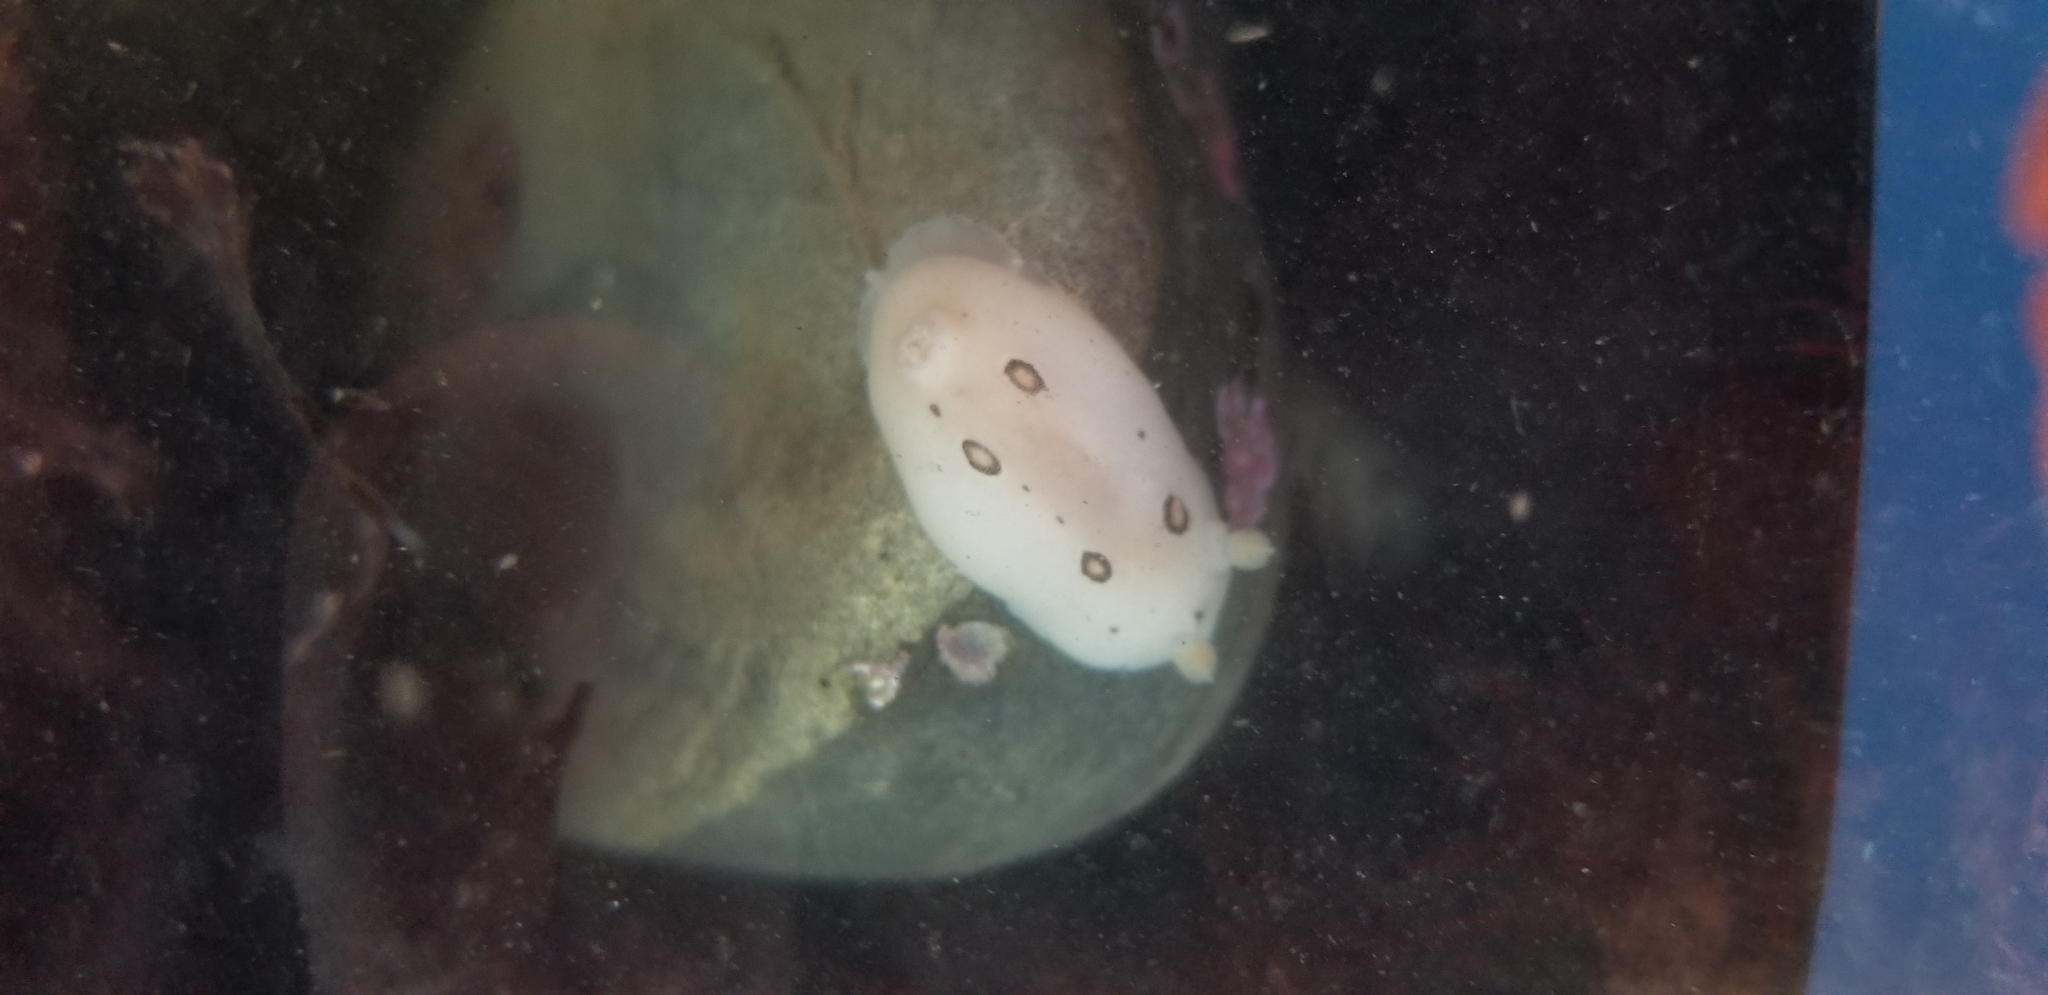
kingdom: Animalia
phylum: Mollusca
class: Gastropoda
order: Nudibranchia
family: Discodorididae
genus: Diaulula
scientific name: Diaulula sandiegensis
